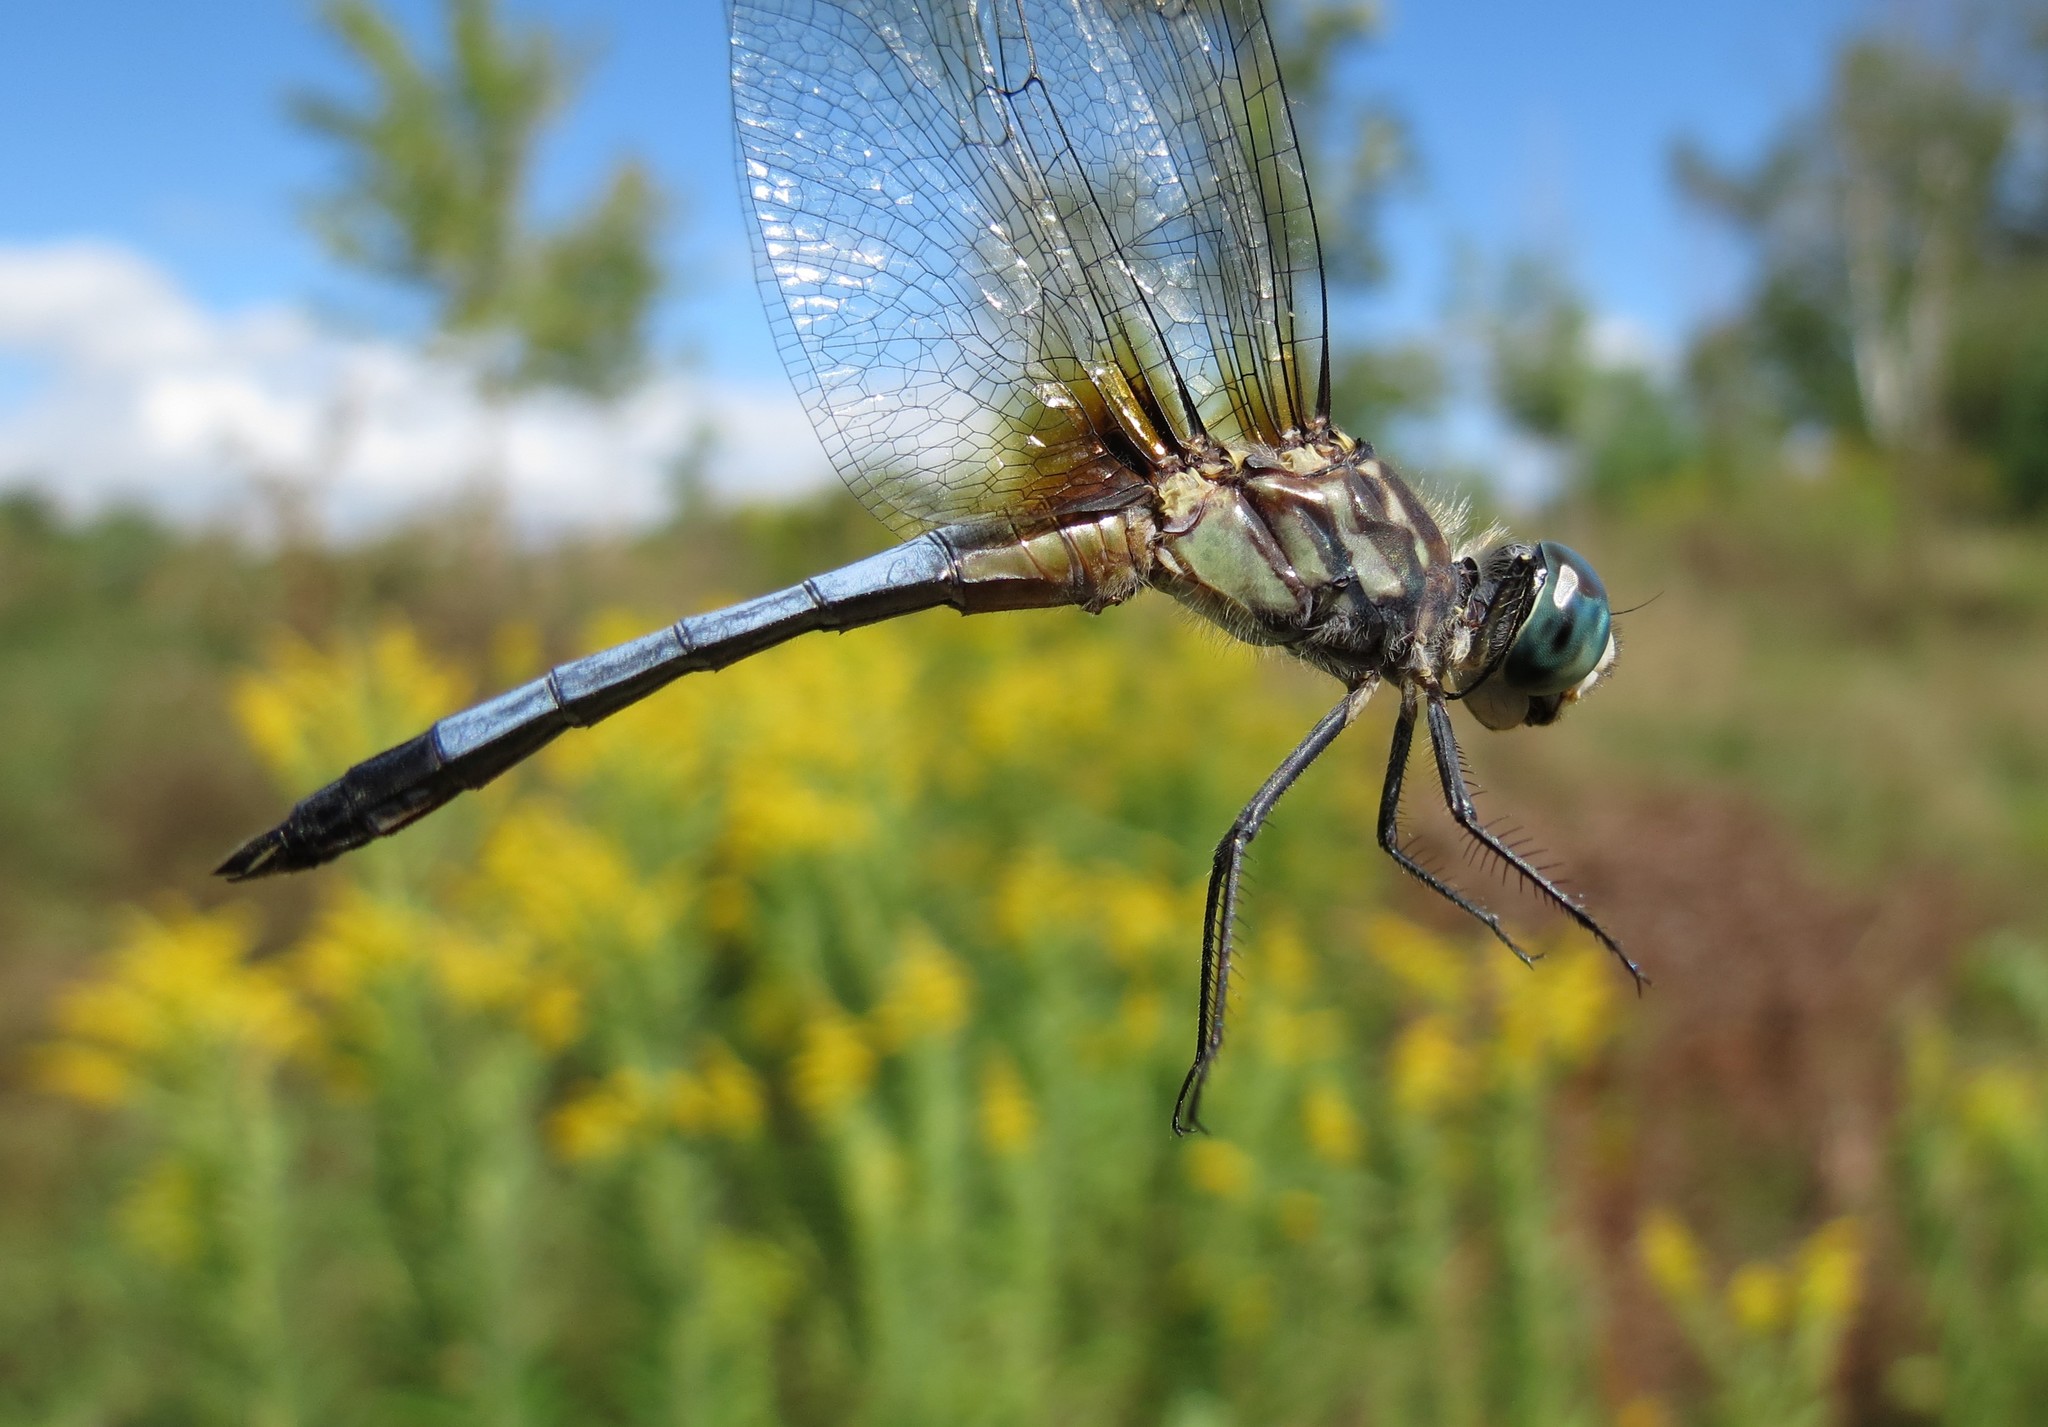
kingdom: Animalia
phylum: Arthropoda
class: Insecta
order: Odonata
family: Libellulidae
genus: Pachydiplax
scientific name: Pachydiplax longipennis
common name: Blue dasher
